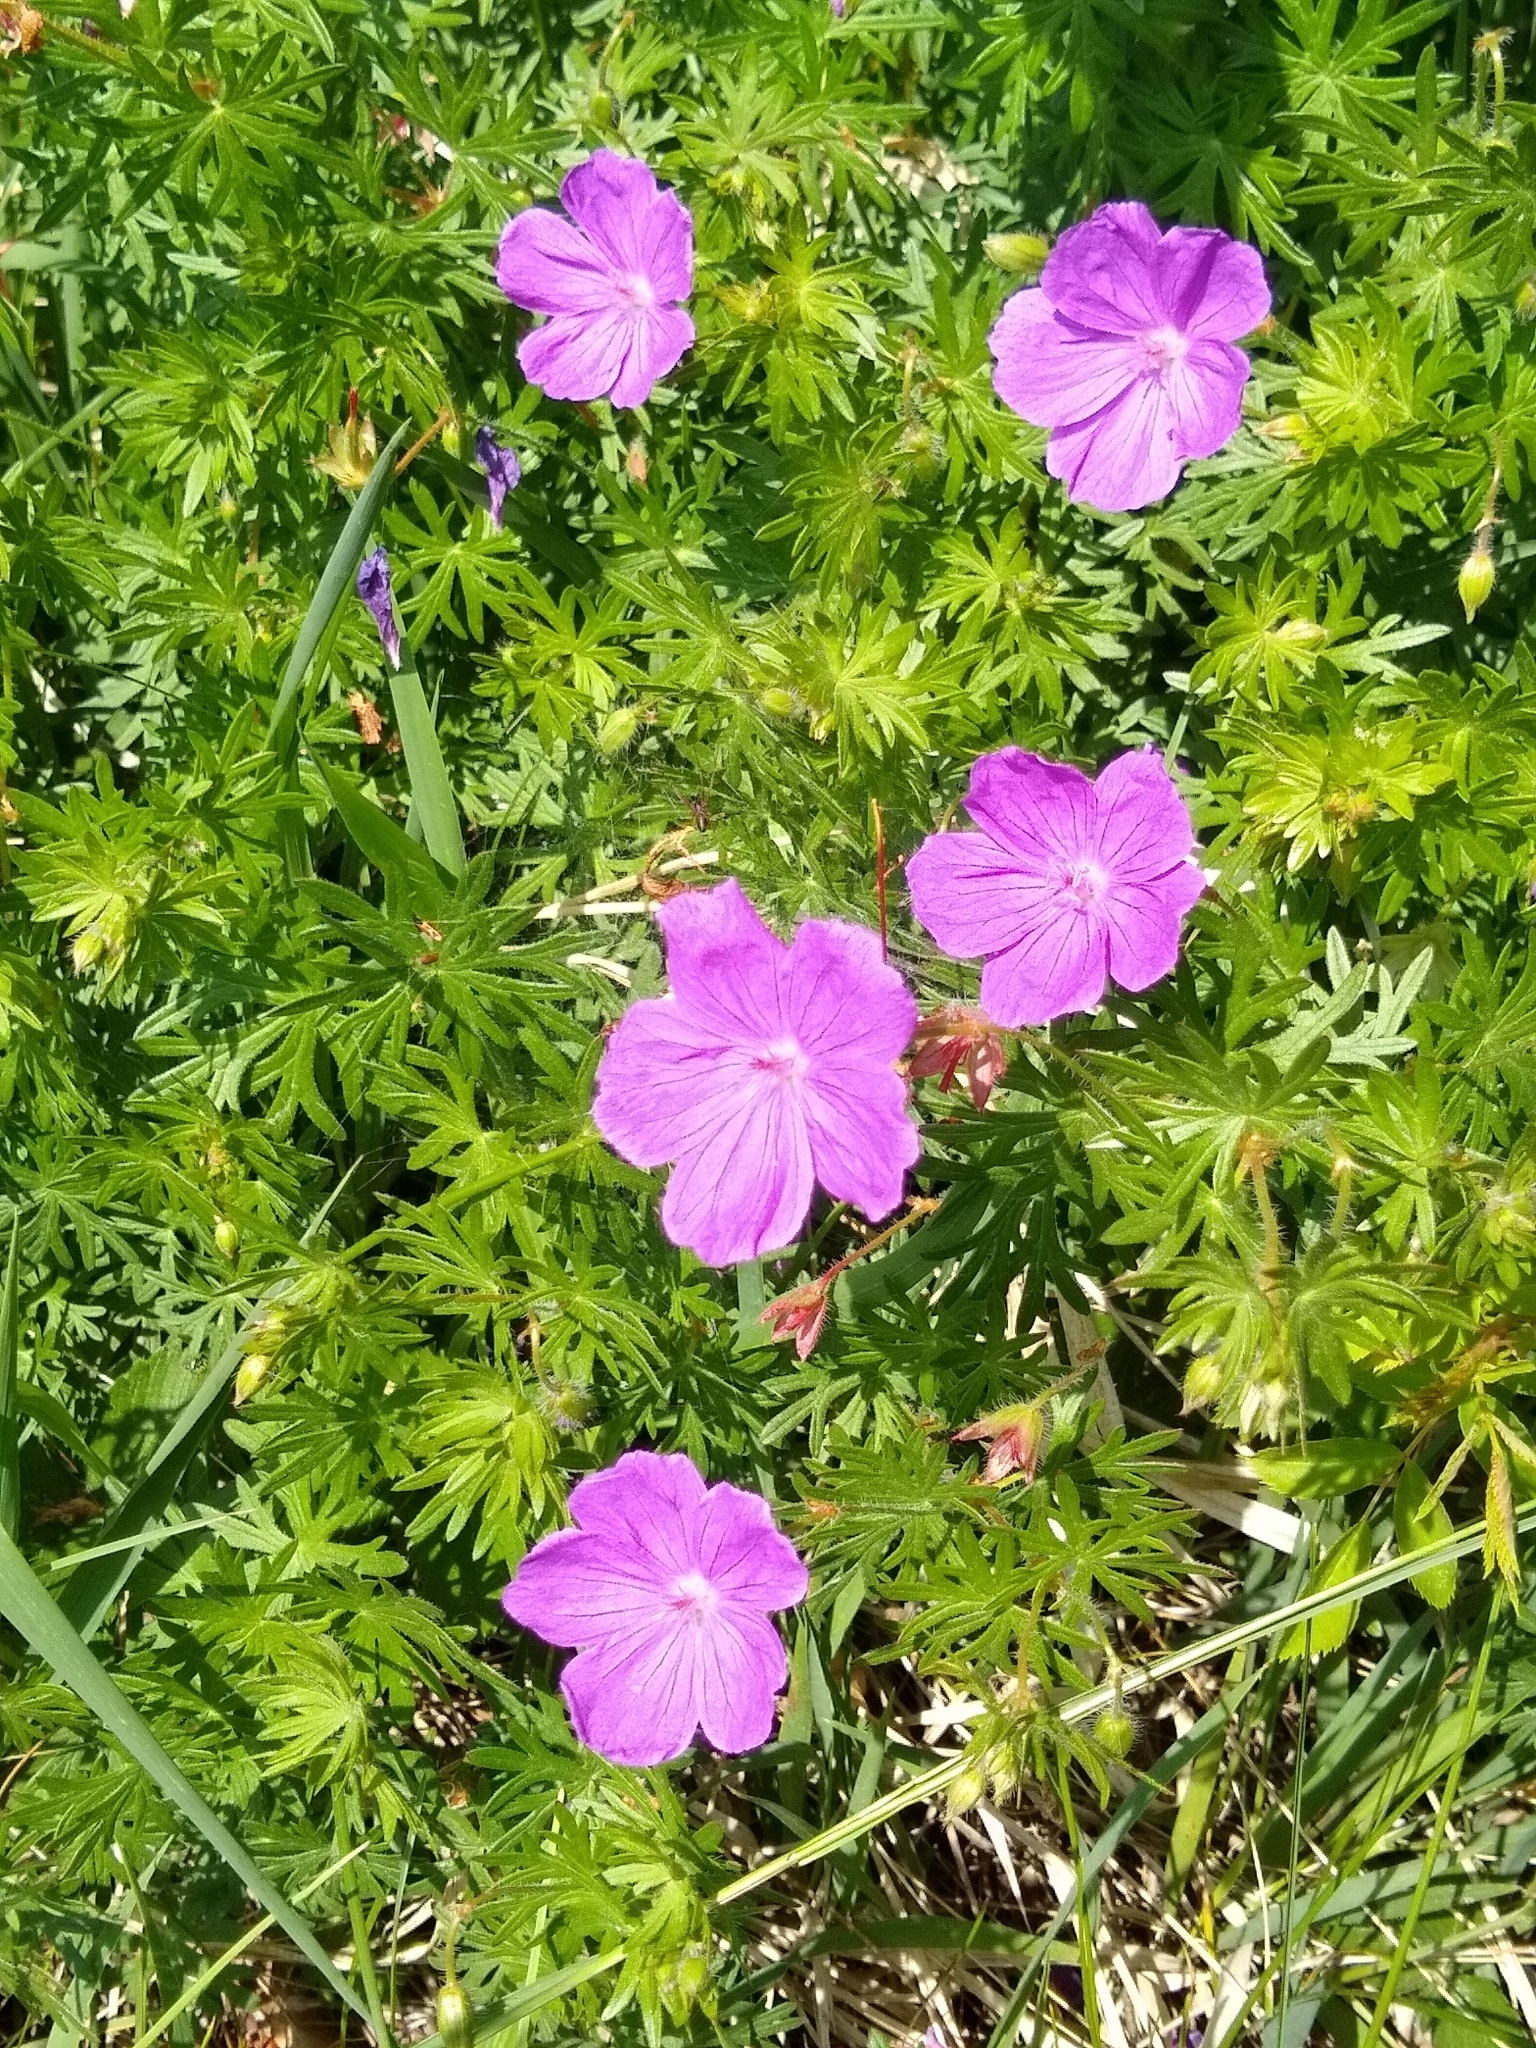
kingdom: Plantae
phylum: Tracheophyta
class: Magnoliopsida
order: Geraniales
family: Geraniaceae
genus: Geranium
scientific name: Geranium sanguineum
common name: Bloody crane's-bill
